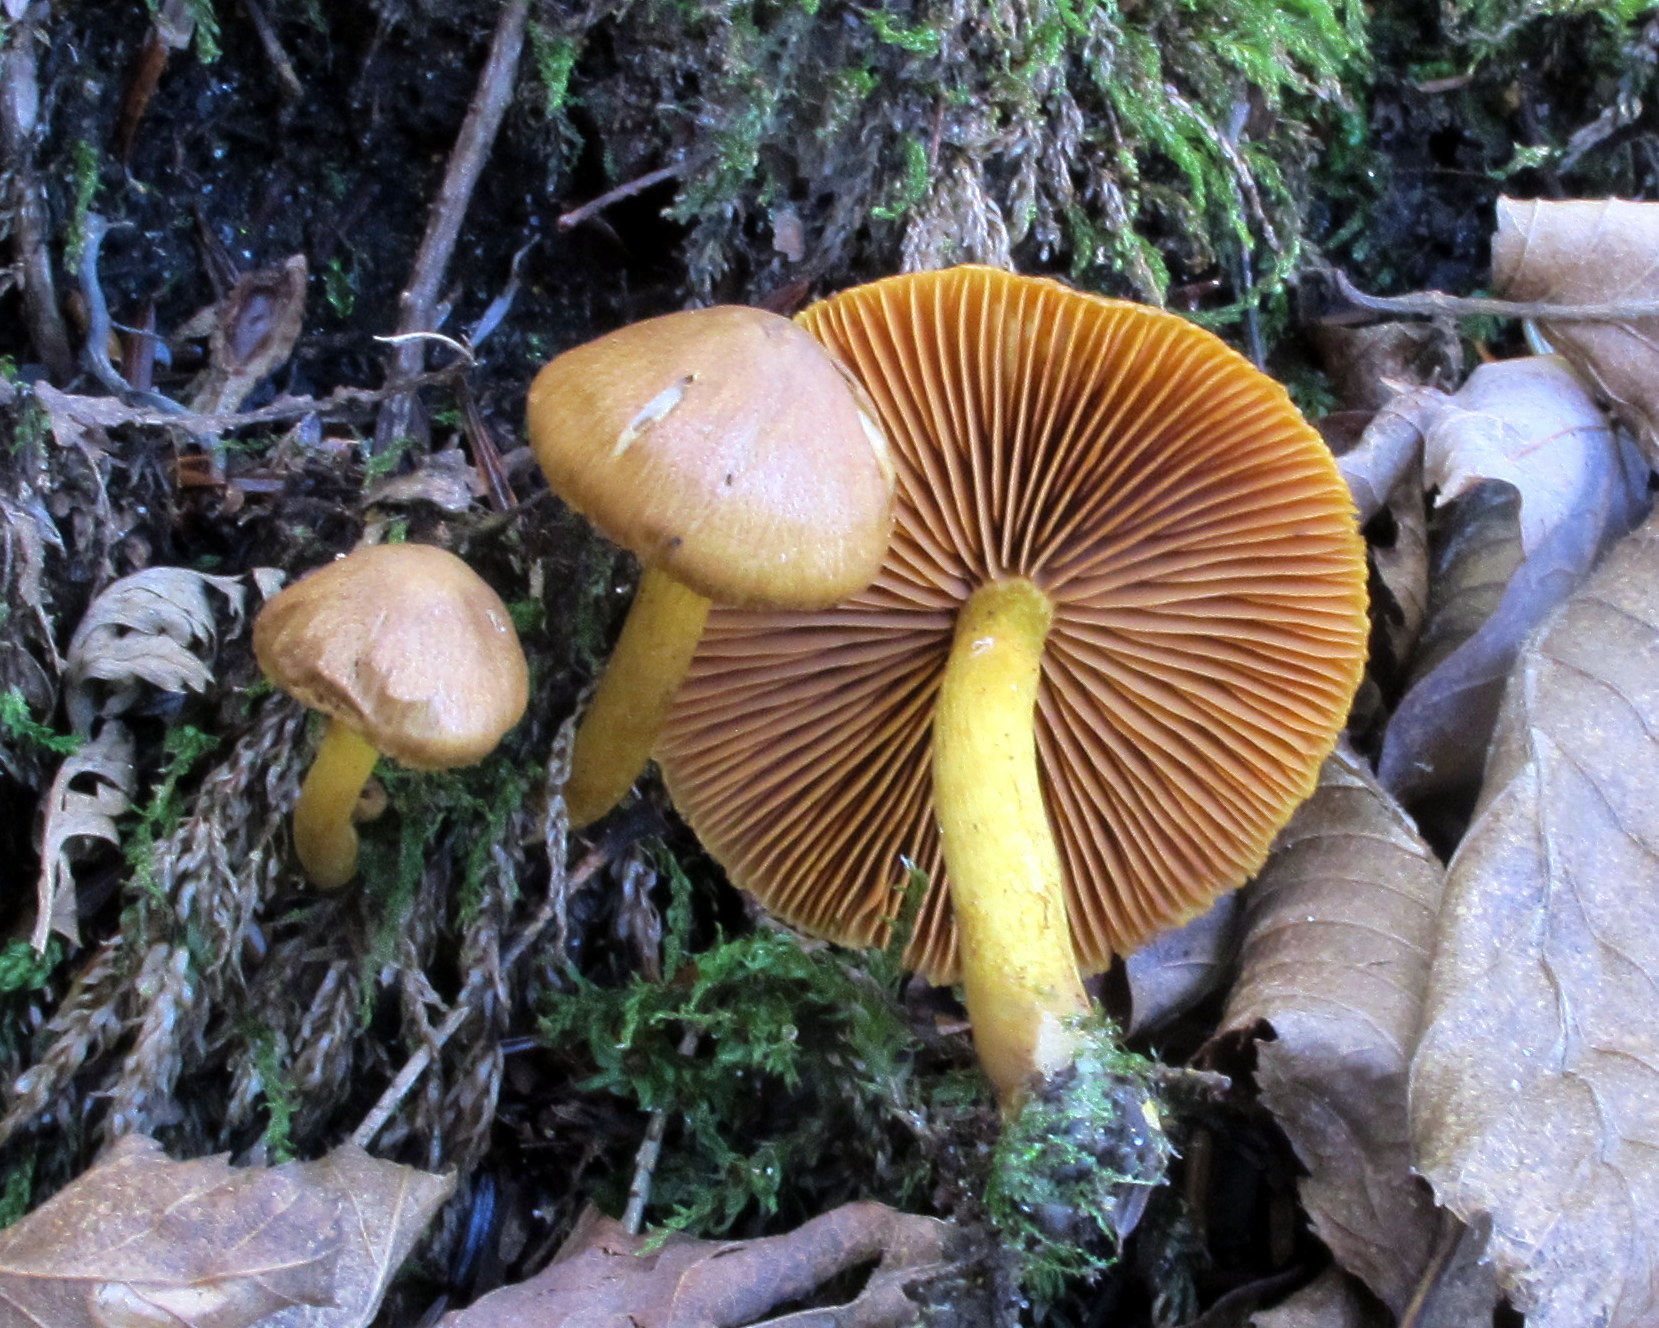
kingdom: Fungi
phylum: Basidiomycota
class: Agaricomycetes
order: Agaricales
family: Cortinariaceae
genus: Cortinarius
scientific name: Cortinarius semisanguineus
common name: Surprise webcap
